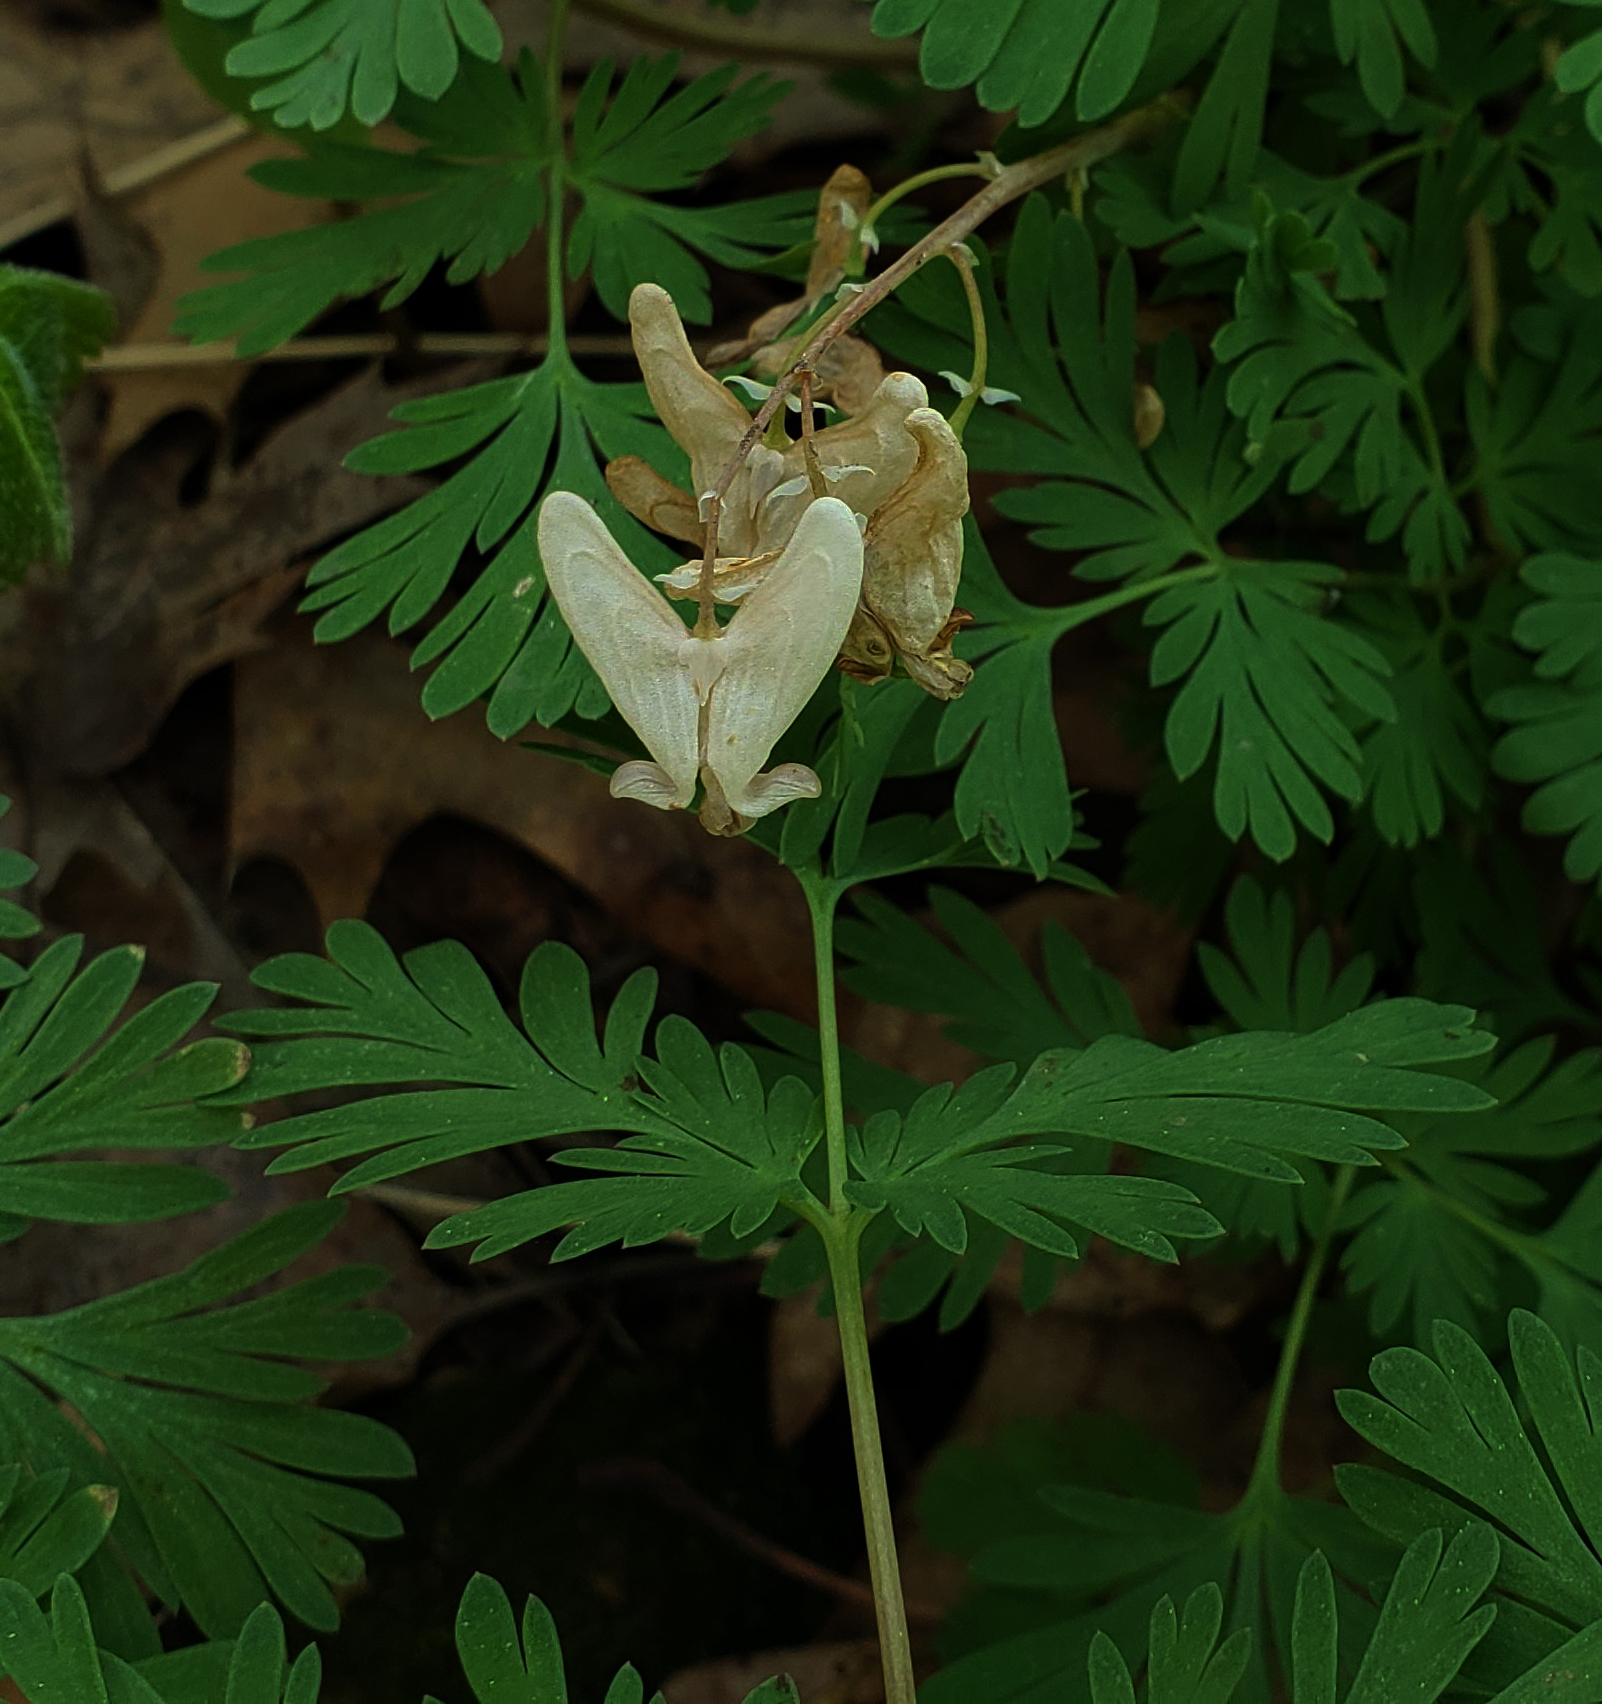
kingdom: Plantae
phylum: Tracheophyta
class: Magnoliopsida
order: Ranunculales
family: Papaveraceae
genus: Dicentra
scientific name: Dicentra cucullaria
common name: Dutchman's breeches
